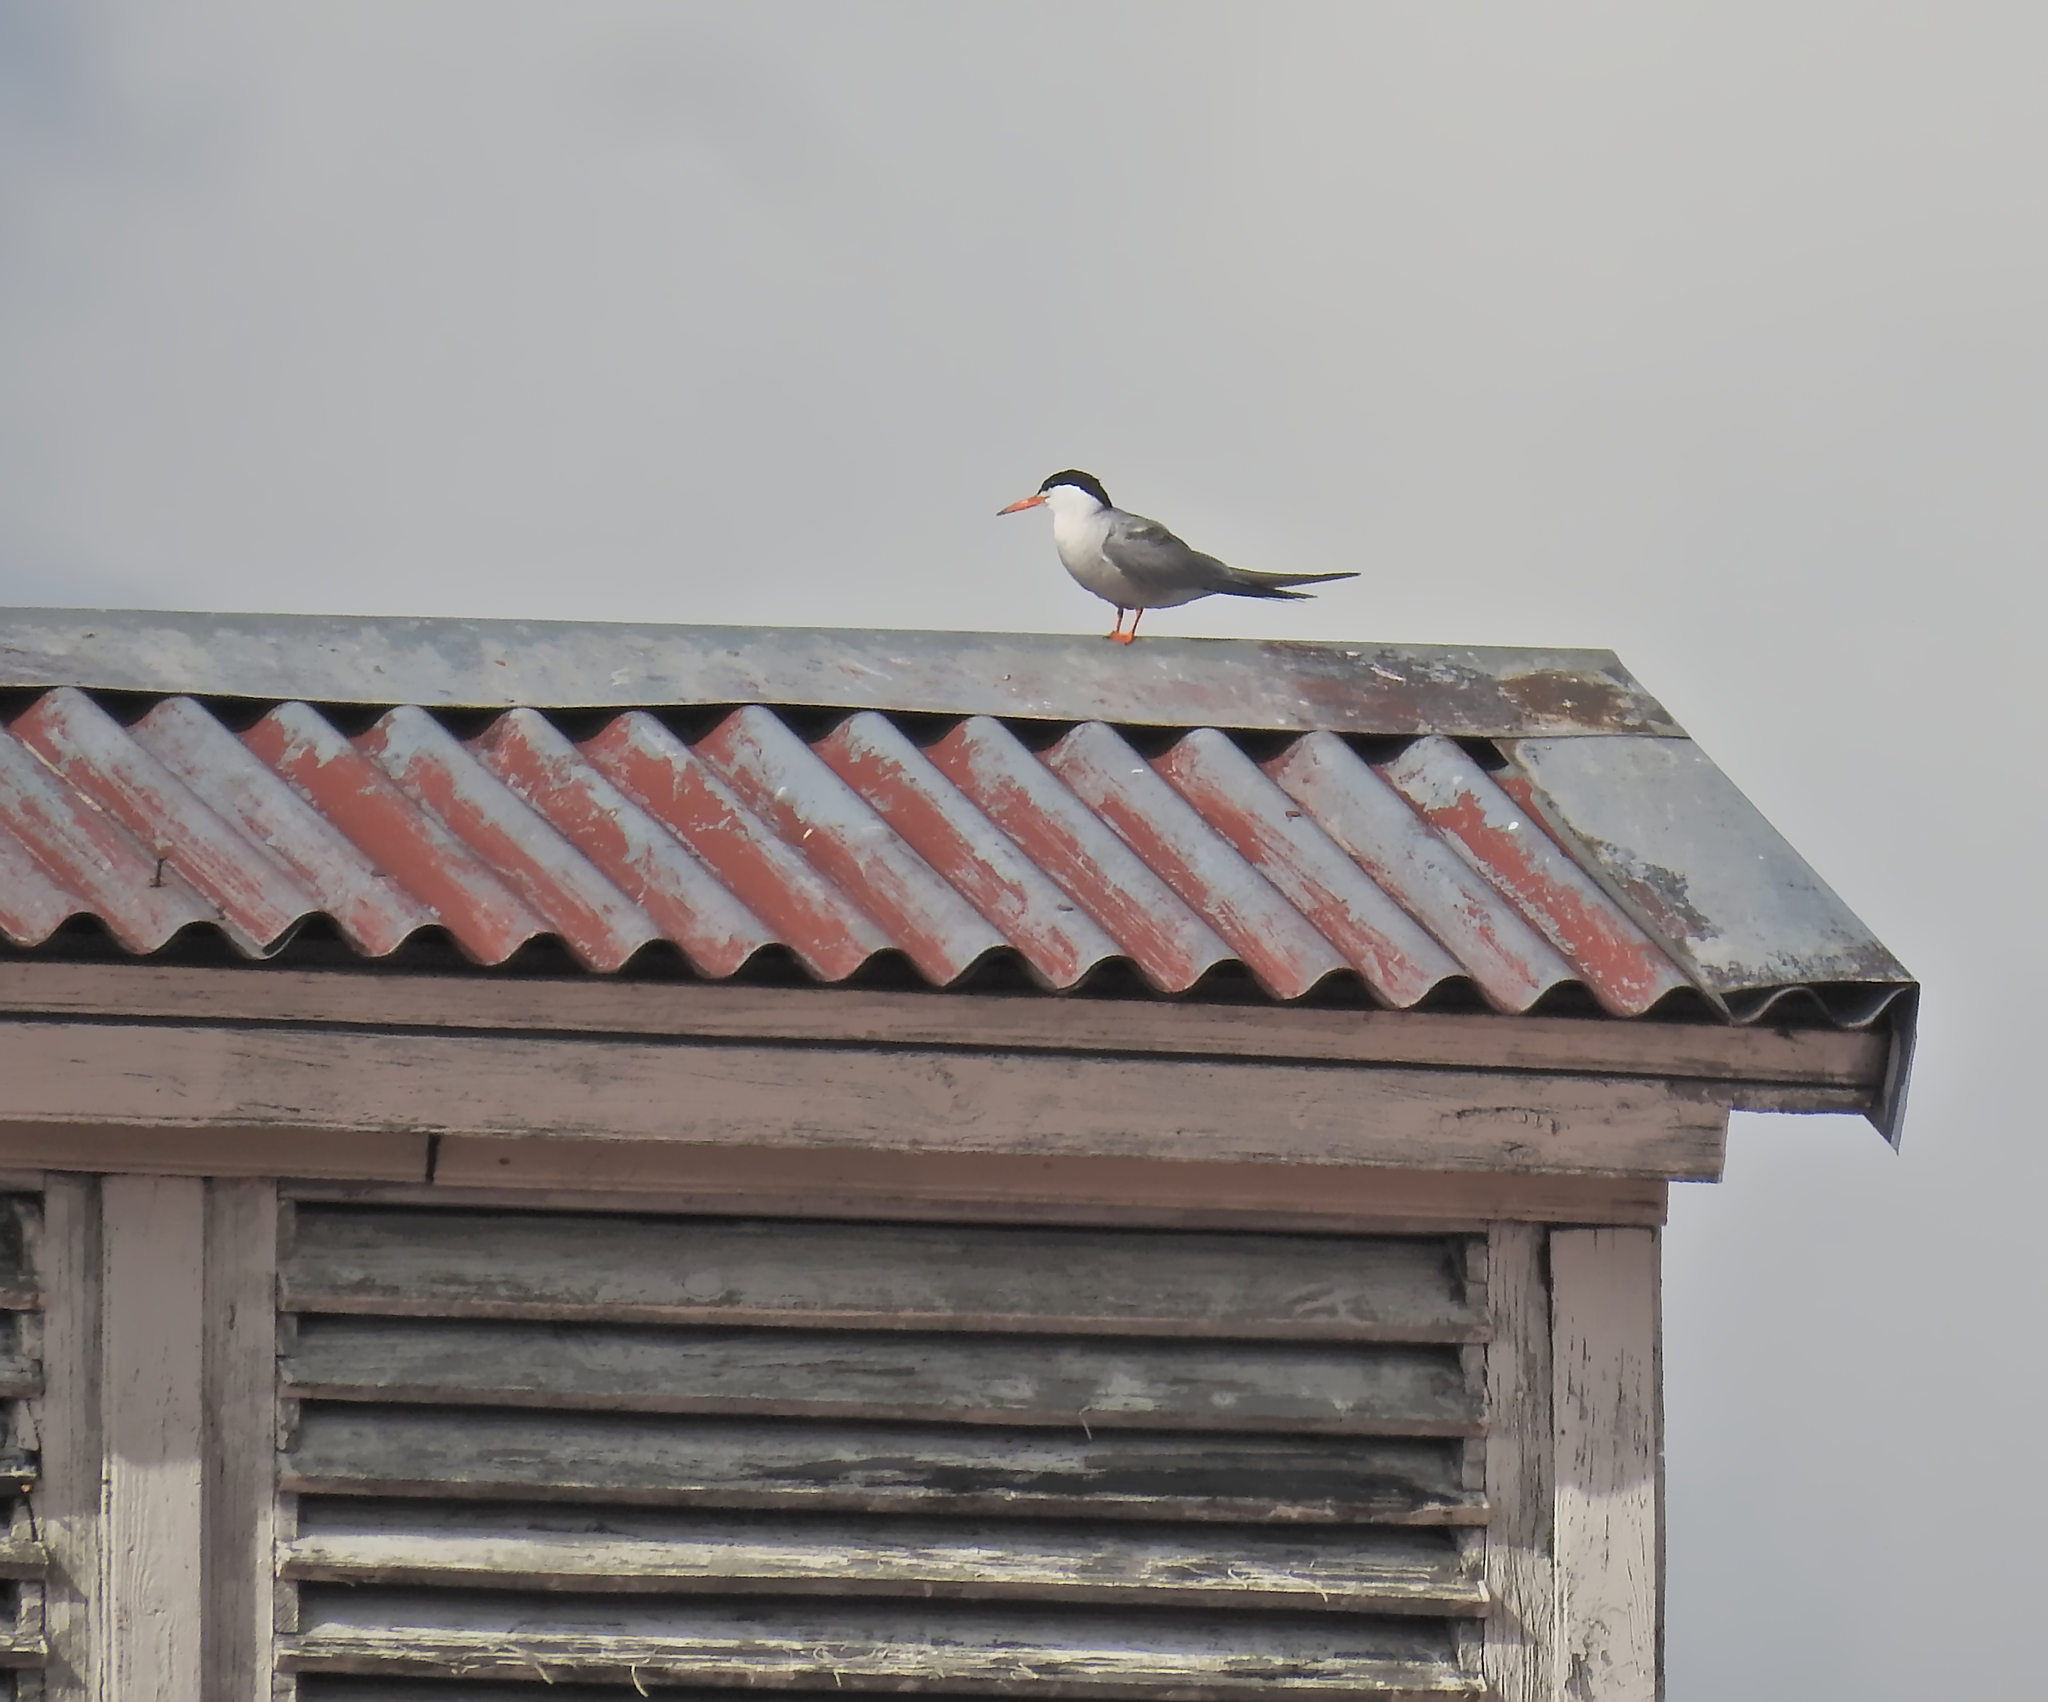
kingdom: Animalia
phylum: Chordata
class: Aves
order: Charadriiformes
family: Laridae
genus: Sterna
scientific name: Sterna hirundo
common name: Common tern
